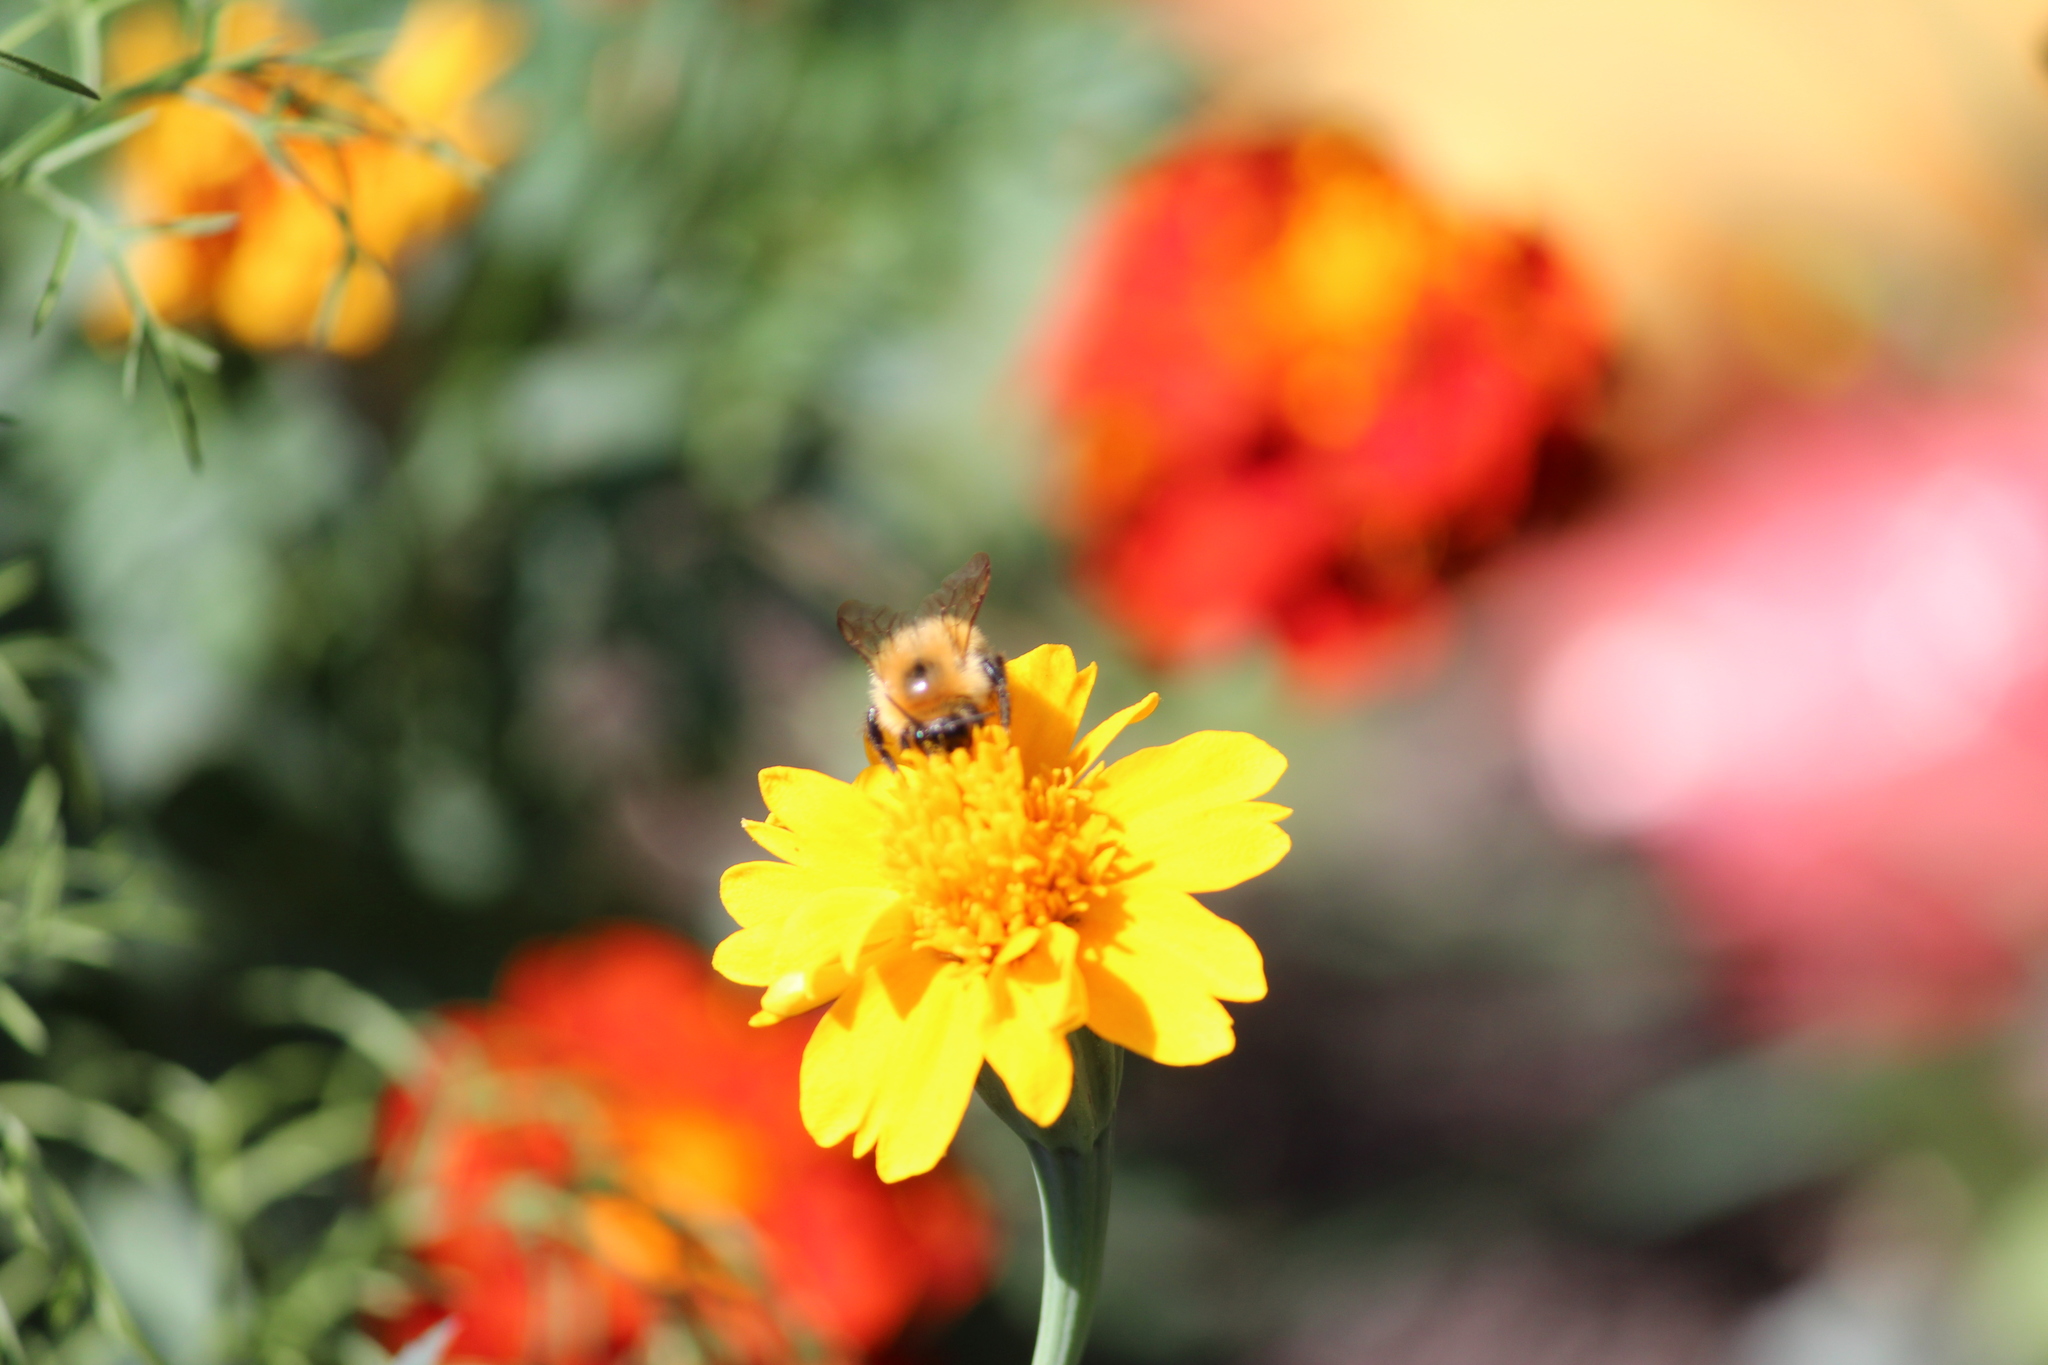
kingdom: Animalia
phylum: Arthropoda
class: Insecta
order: Hymenoptera
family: Apidae
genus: Bombus
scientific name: Bombus hypnorum
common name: New garden bumblebee
